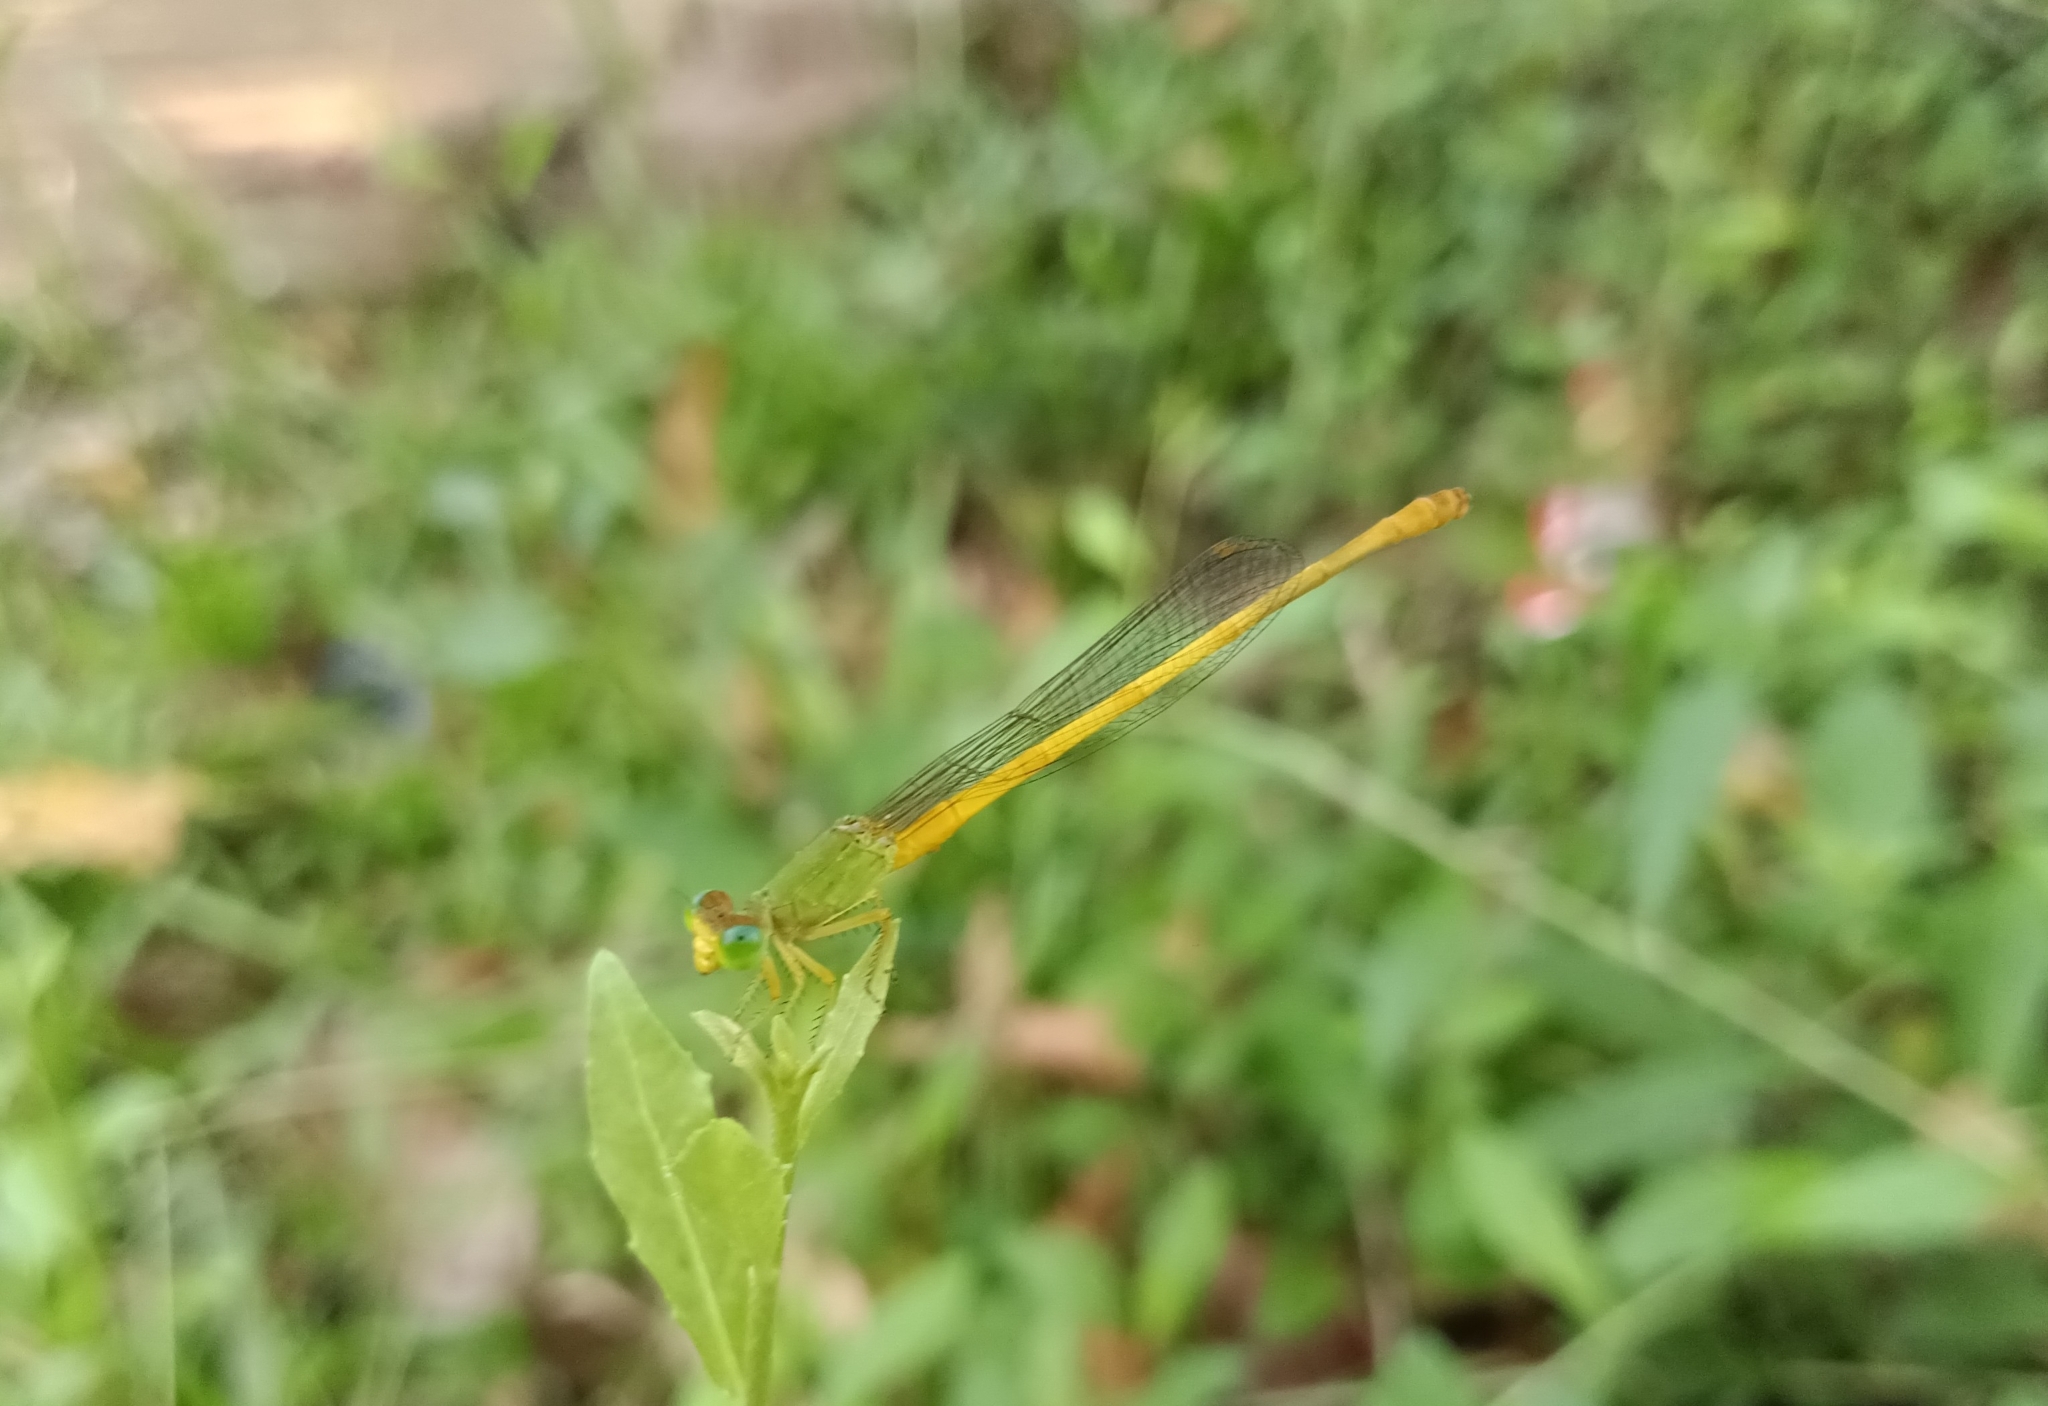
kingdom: Animalia
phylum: Arthropoda
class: Insecta
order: Odonata
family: Coenagrionidae
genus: Ceriagrion
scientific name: Ceriagrion coromandelianum
